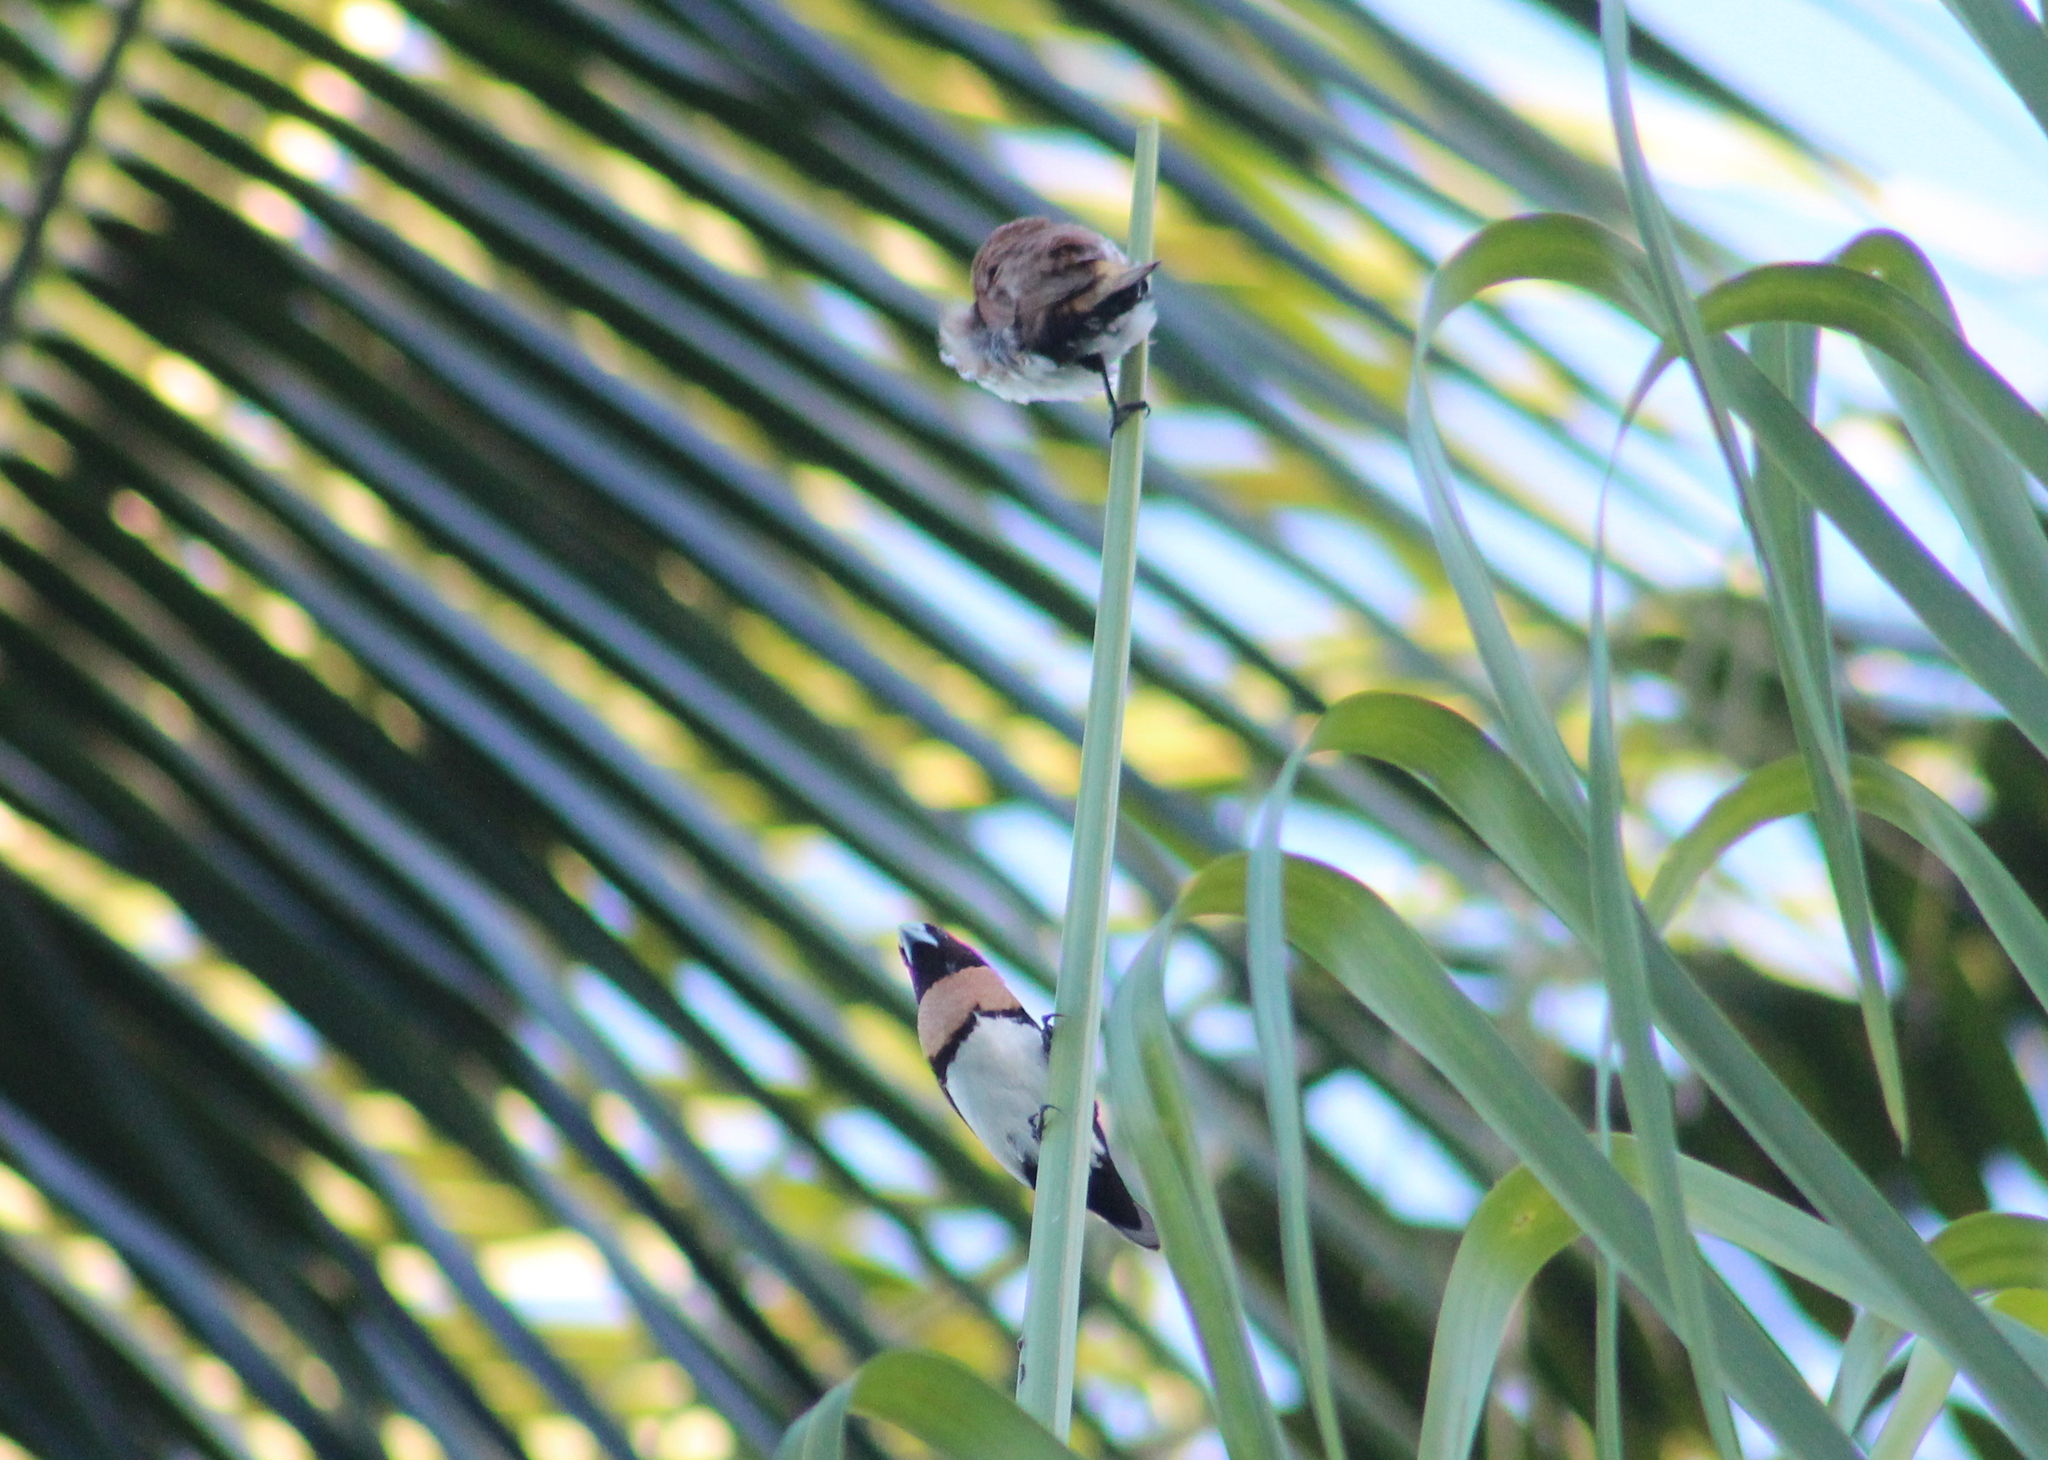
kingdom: Animalia
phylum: Chordata
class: Aves
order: Passeriformes
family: Estrildidae
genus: Lonchura
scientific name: Lonchura castaneothorax
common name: Chestnut-breasted mannikin
